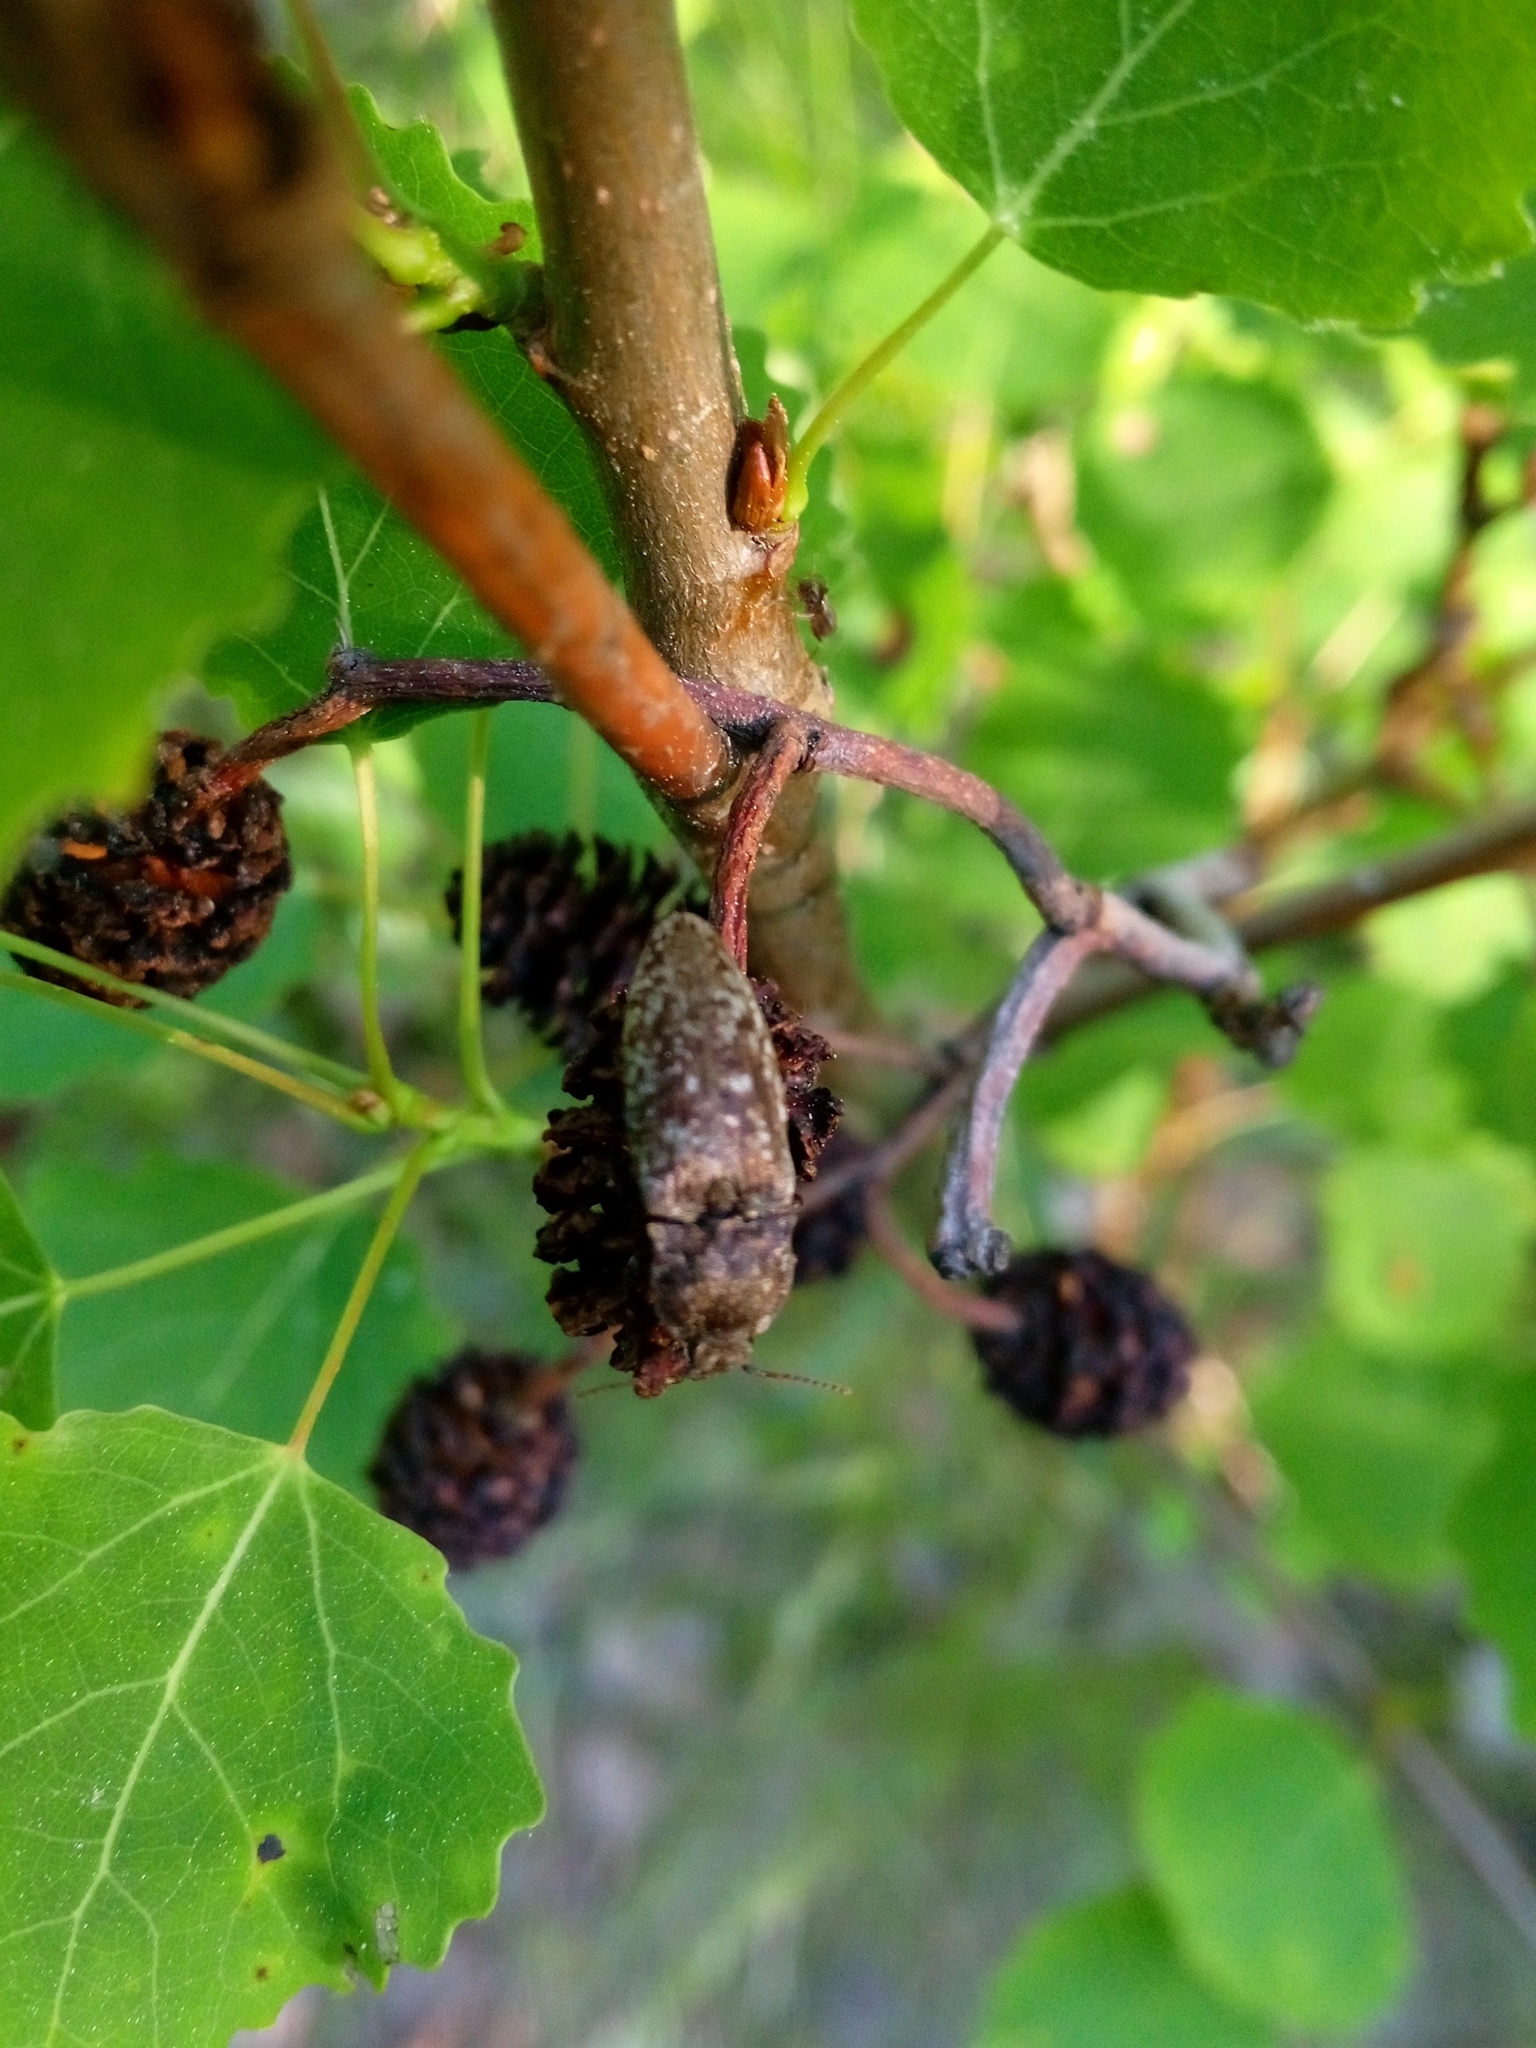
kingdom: Animalia
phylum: Arthropoda
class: Insecta
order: Coleoptera
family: Elateridae
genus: Agrypnus
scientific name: Agrypnus murinus
